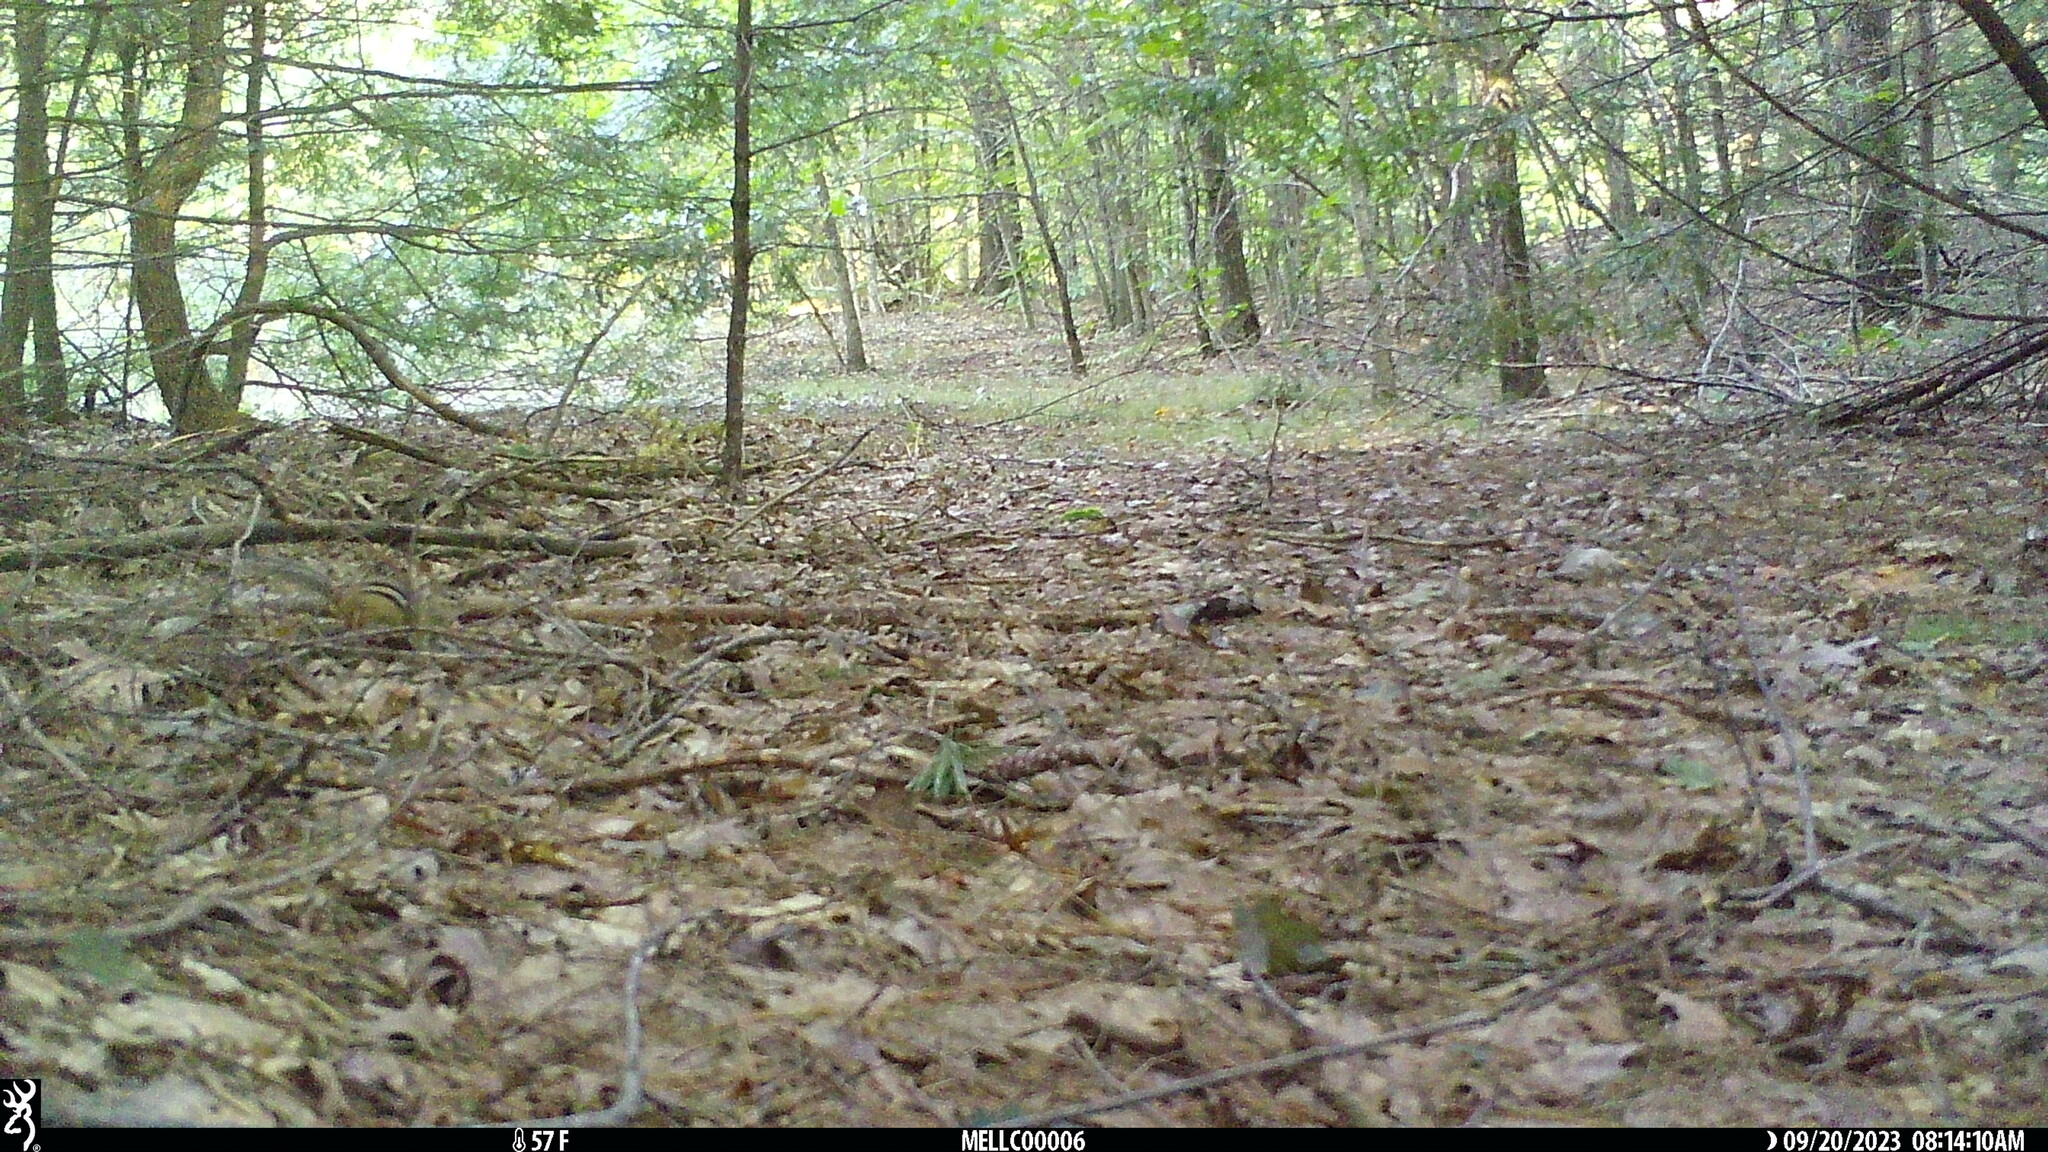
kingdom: Animalia
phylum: Chordata
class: Mammalia
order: Rodentia
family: Sciuridae
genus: Tamias
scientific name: Tamias striatus
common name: Eastern chipmunk
